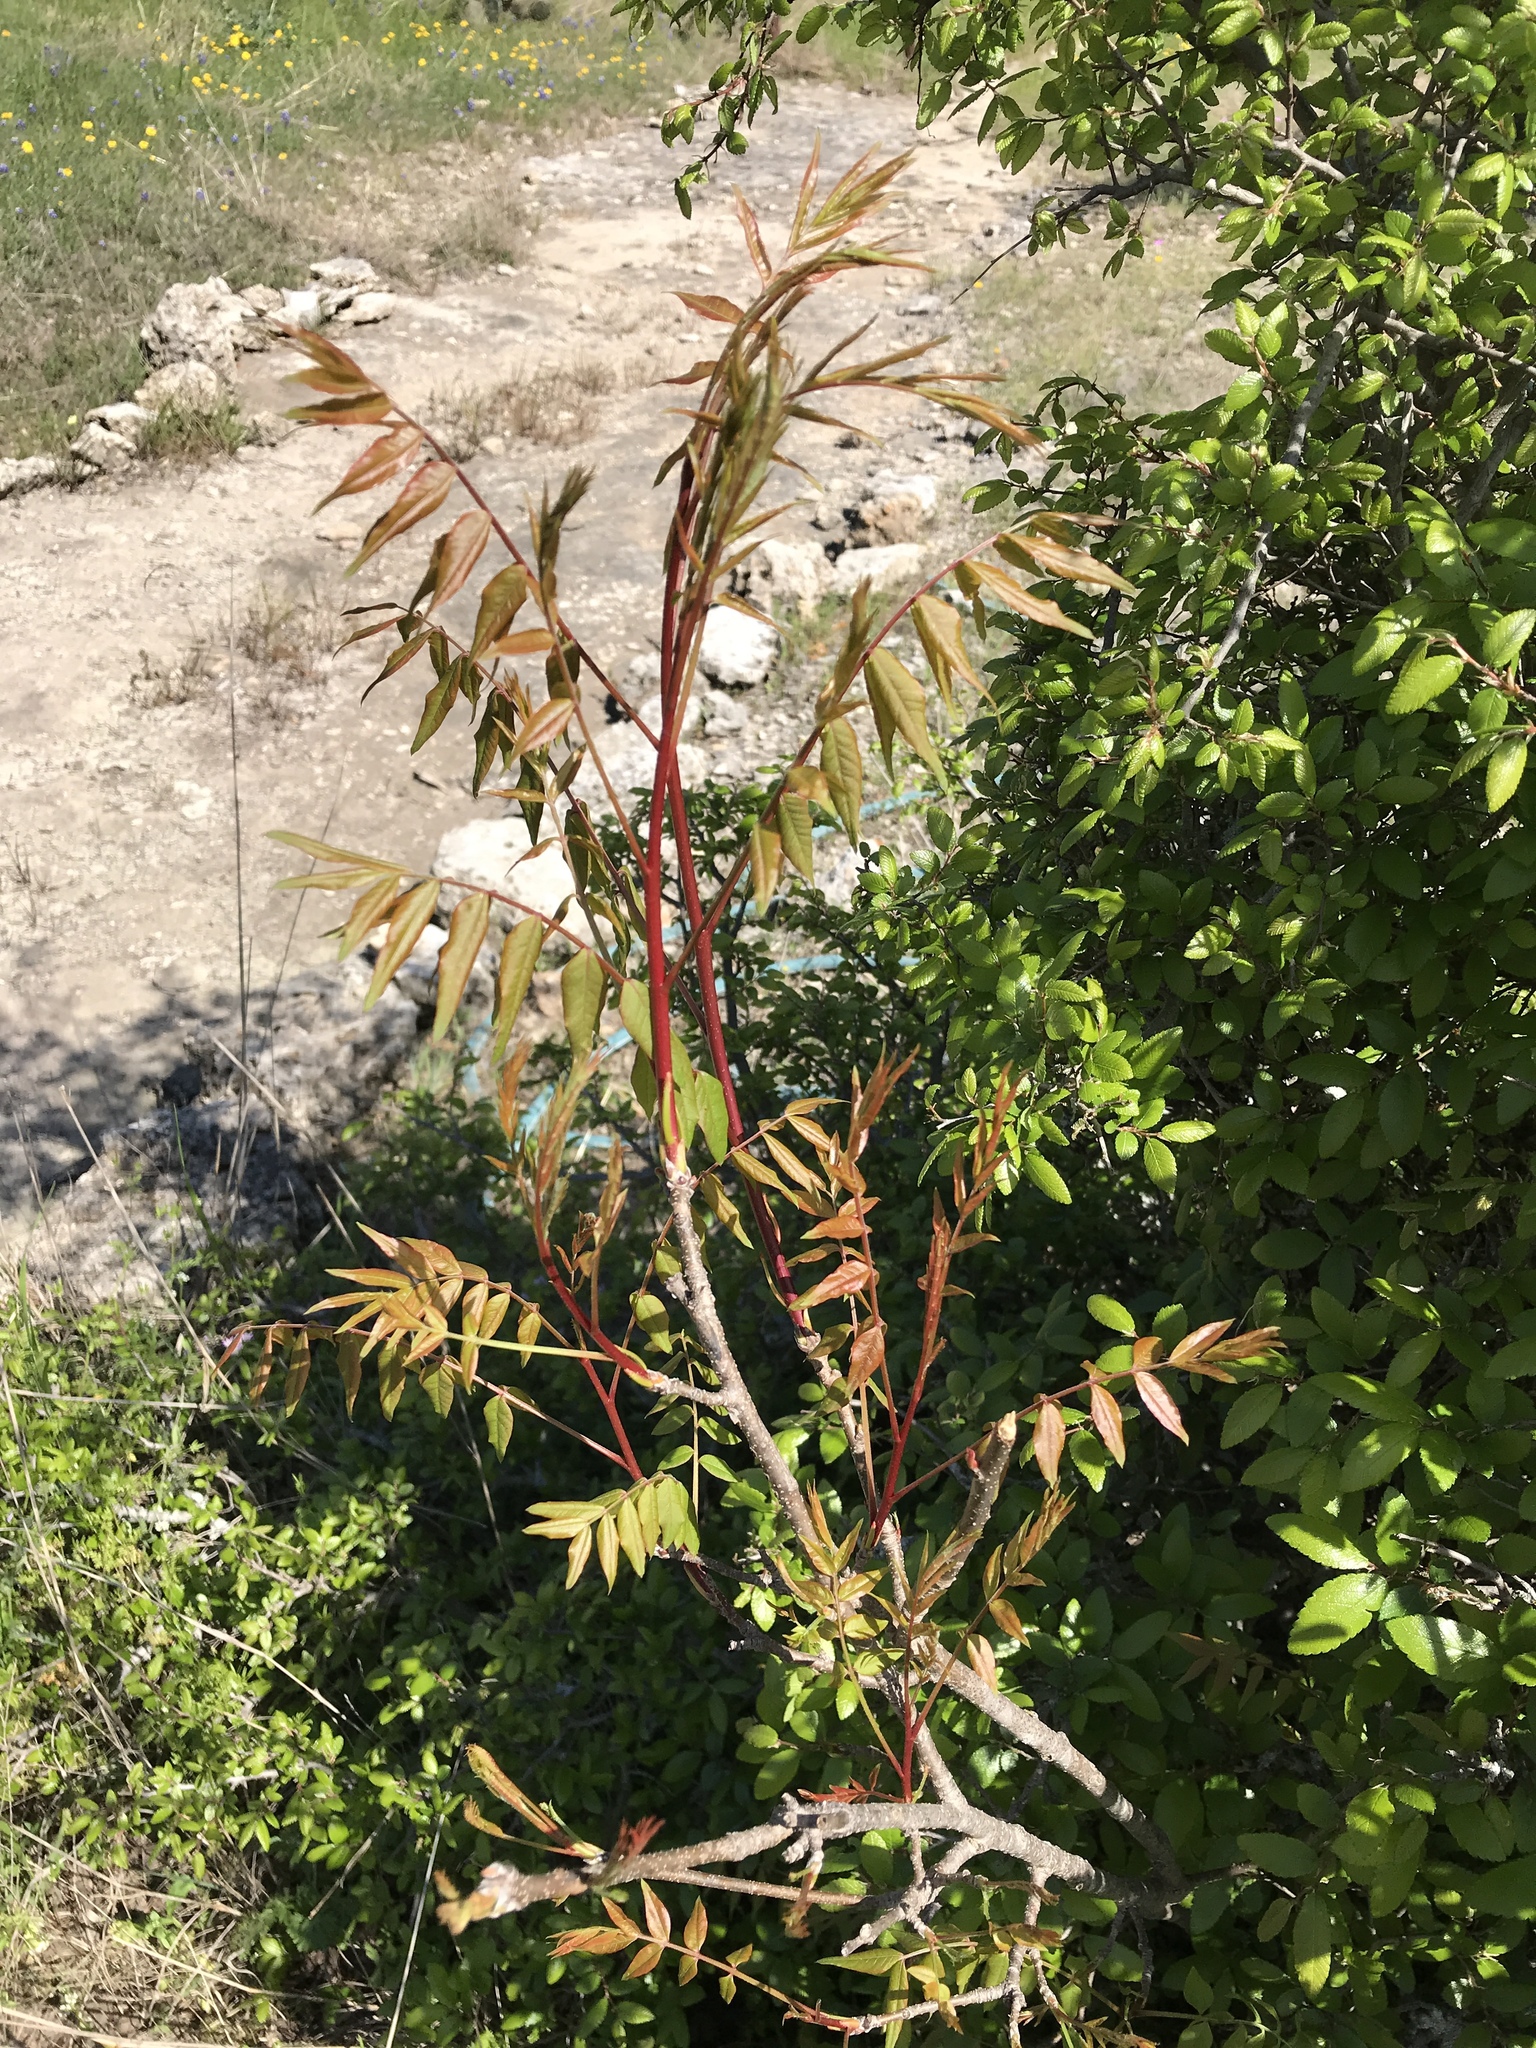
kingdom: Plantae
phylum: Tracheophyta
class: Magnoliopsida
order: Sapindales
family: Anacardiaceae
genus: Pistacia
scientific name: Pistacia chinensis
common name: Chinese pistache
